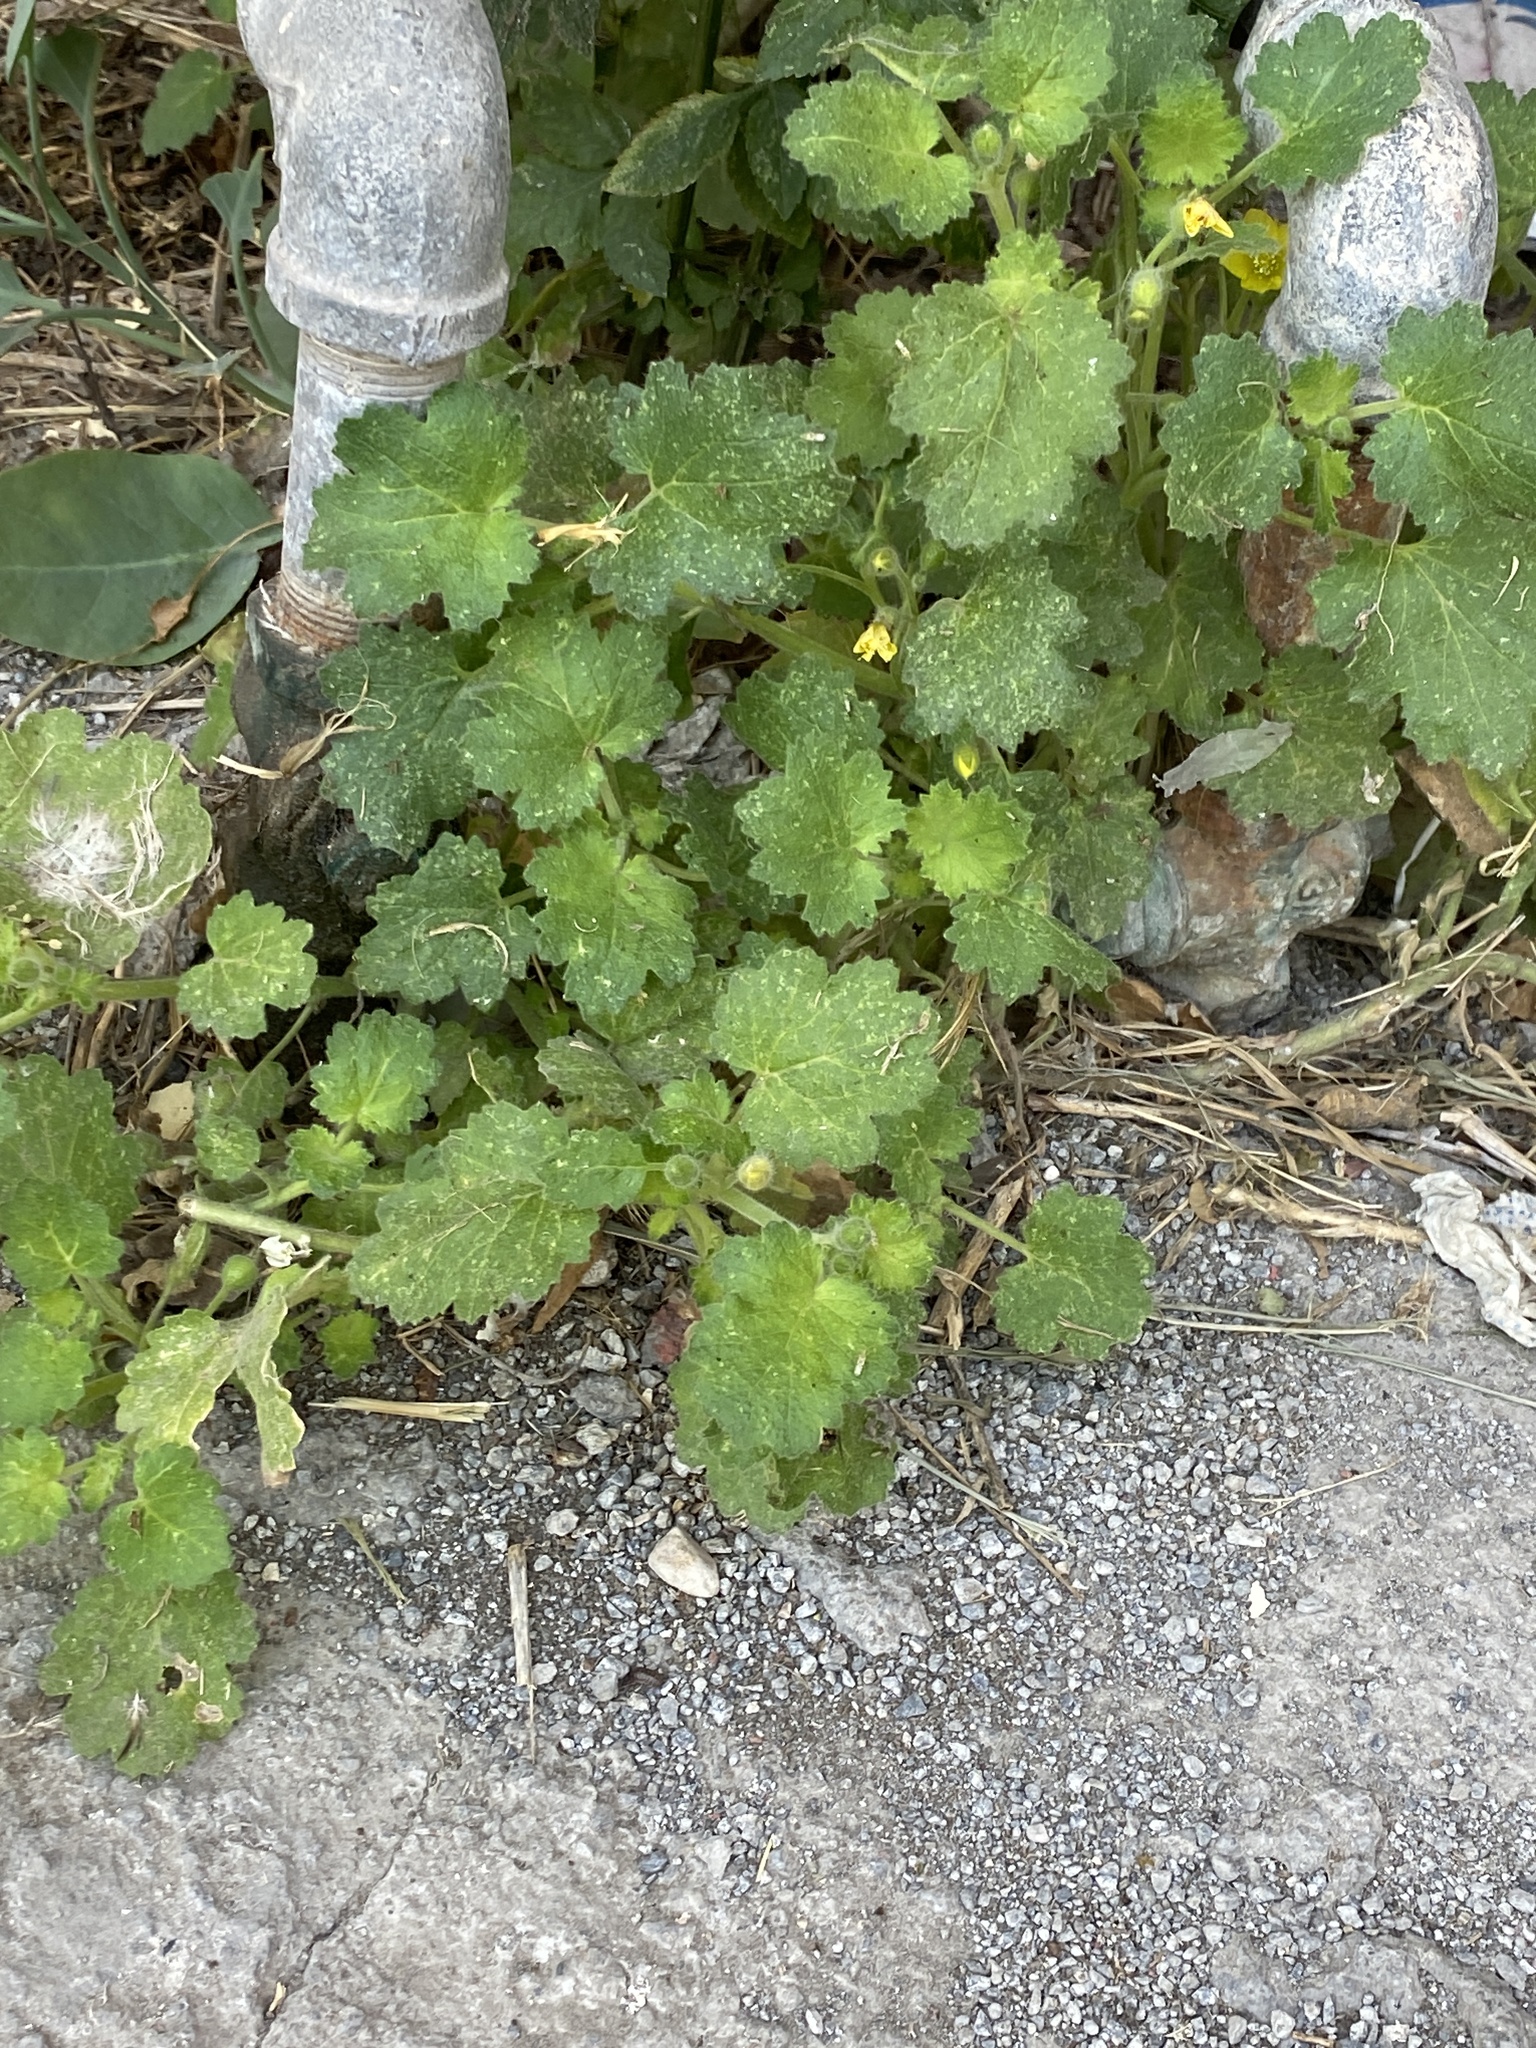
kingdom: Plantae
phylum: Tracheophyta
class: Magnoliopsida
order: Cornales
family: Loasaceae
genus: Eucnide
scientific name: Eucnide lobata
